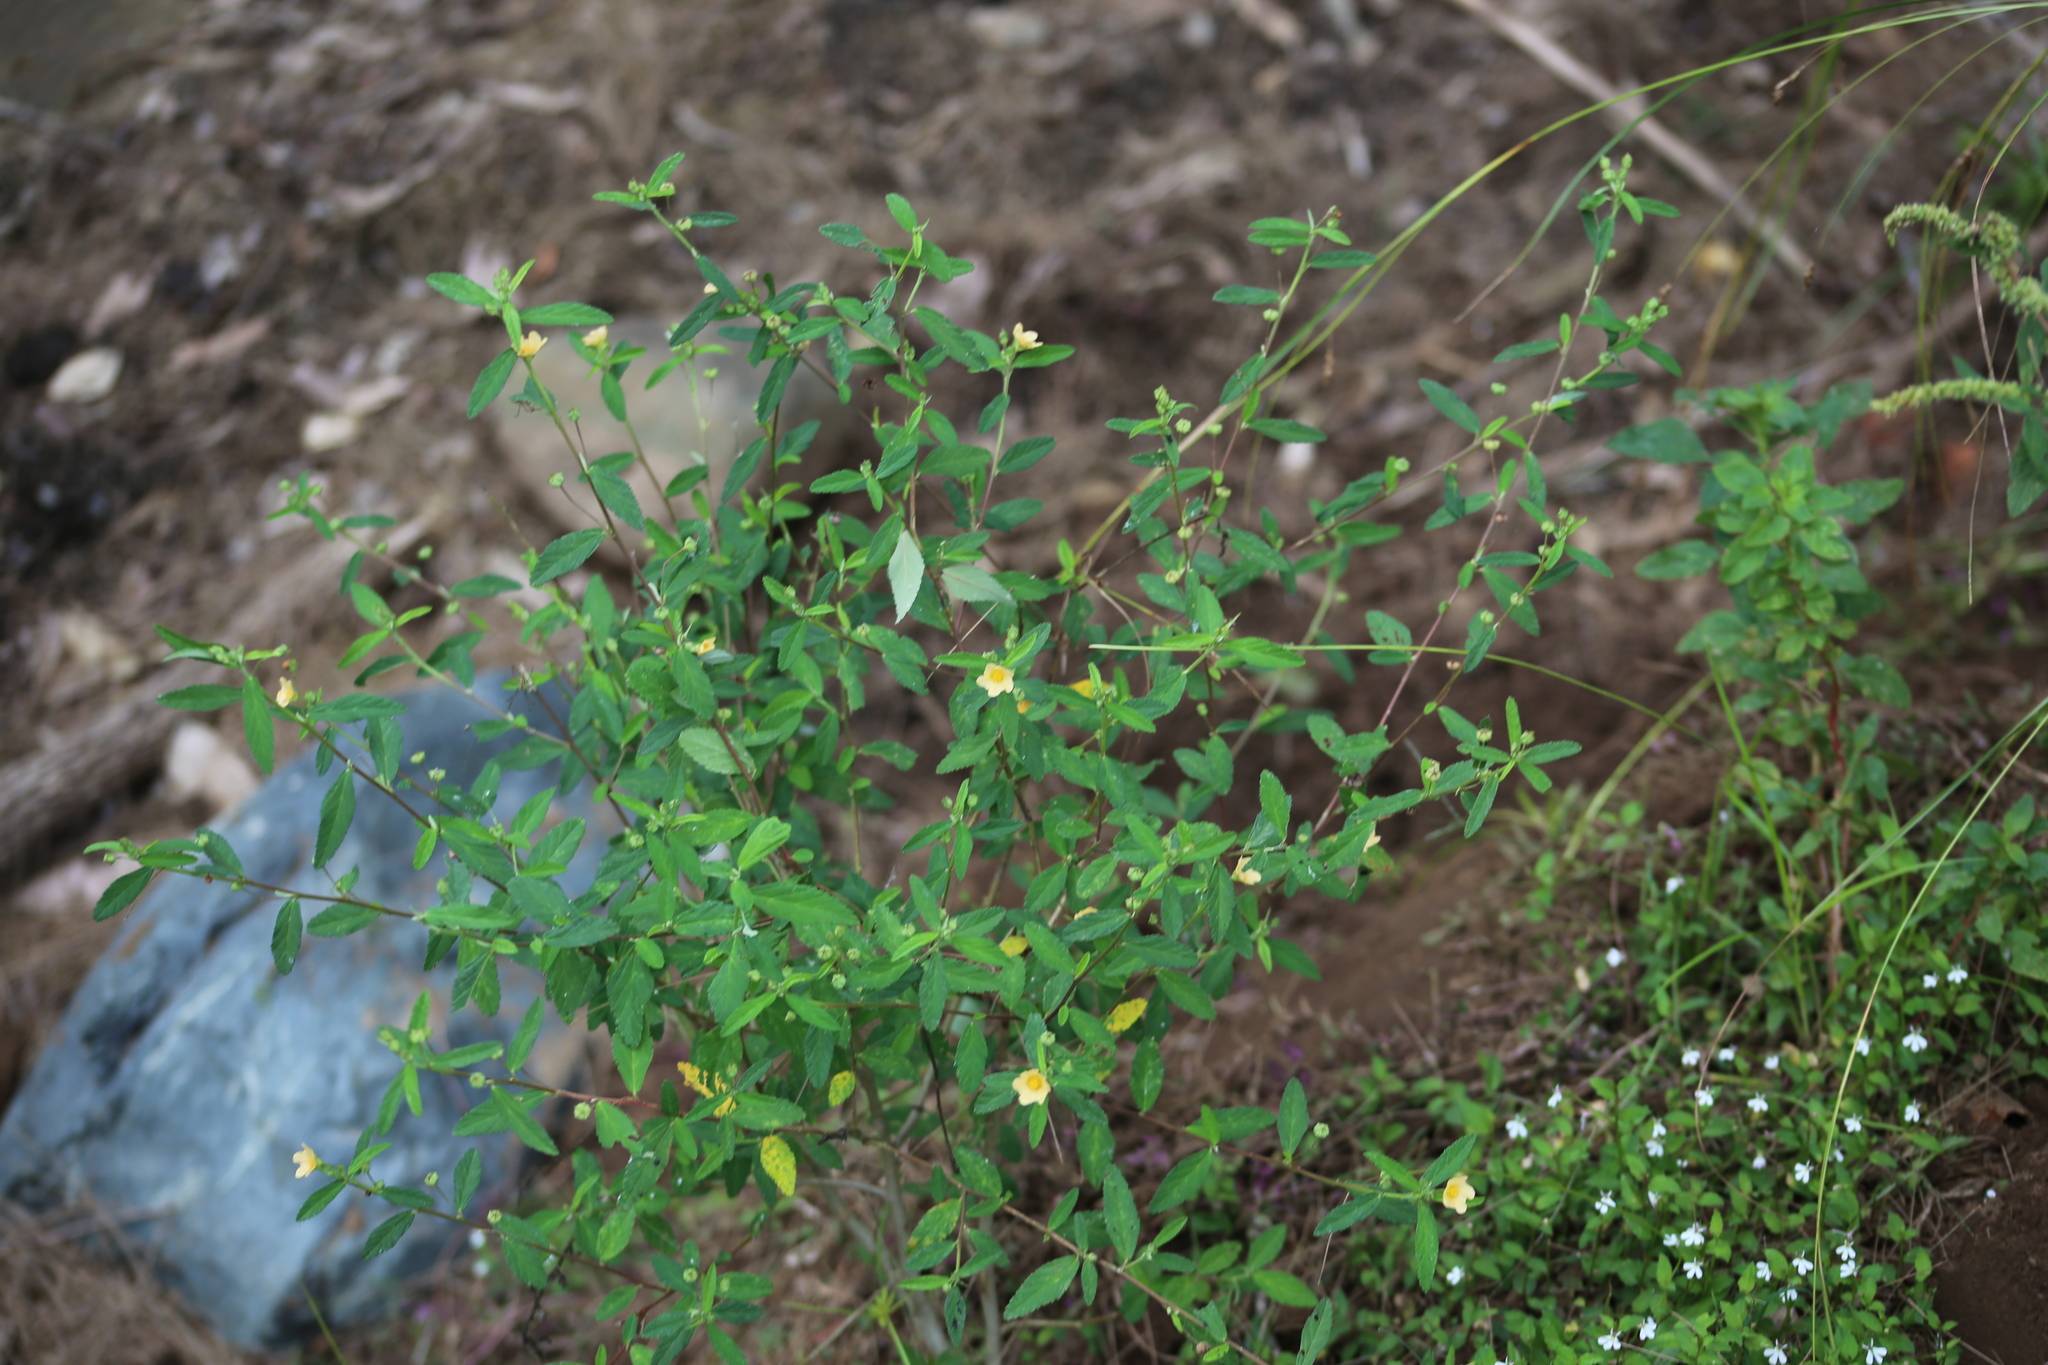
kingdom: Plantae
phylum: Tracheophyta
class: Magnoliopsida
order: Malvales
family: Malvaceae
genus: Sida
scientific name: Sida rhombifolia
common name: Queensland-hemp
